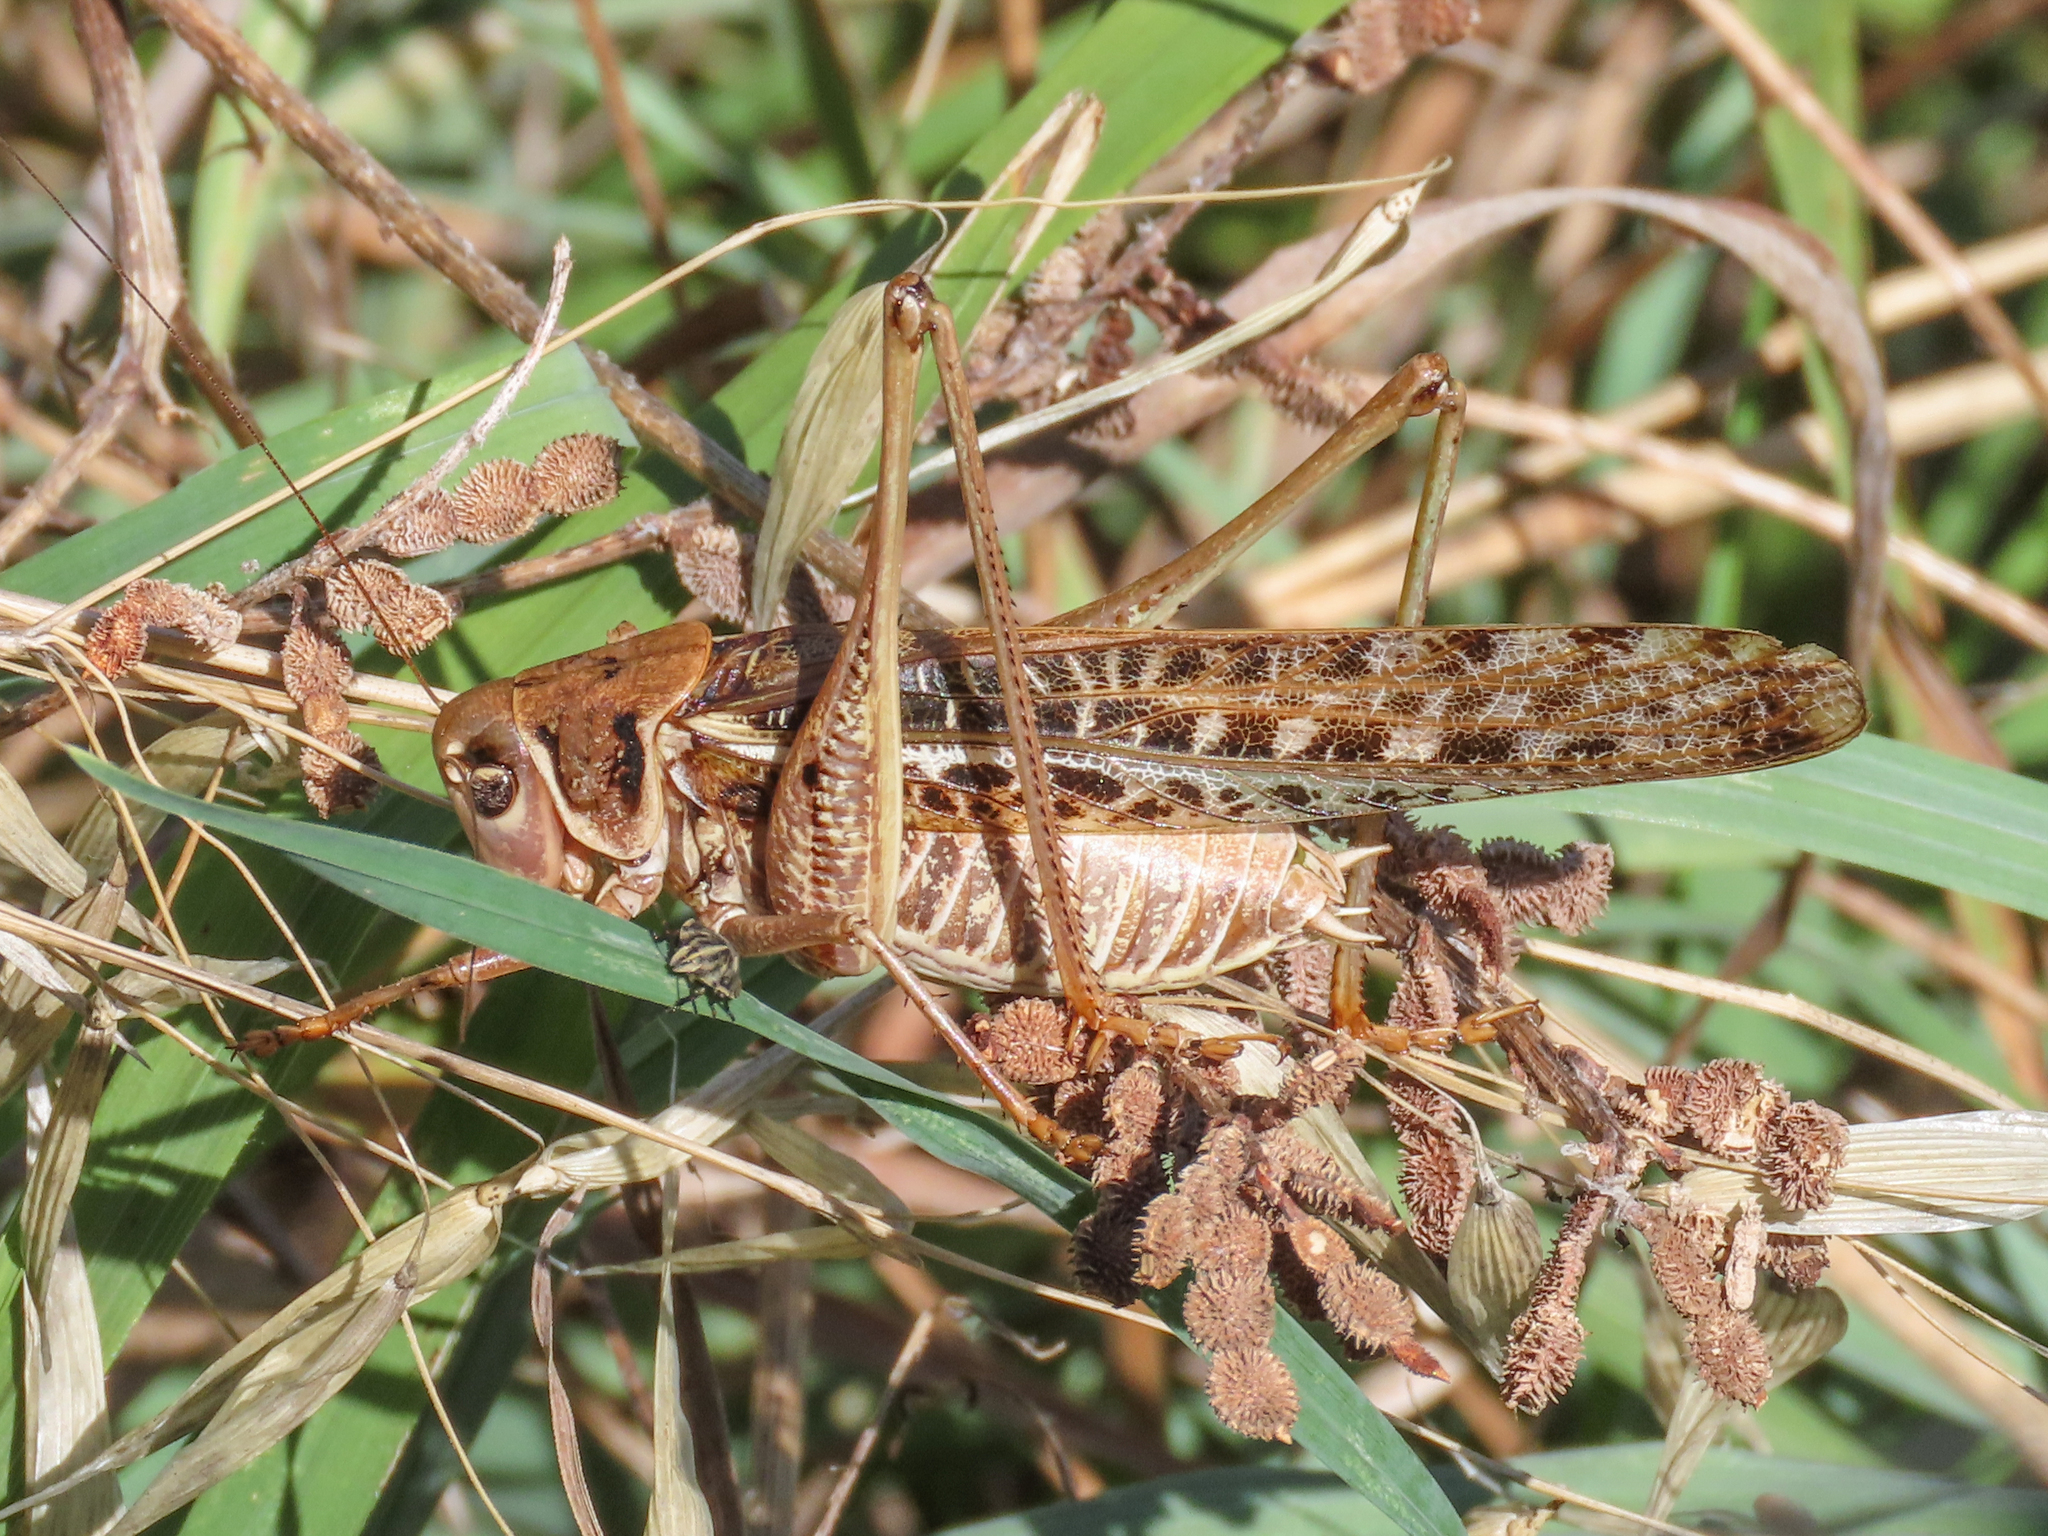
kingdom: Animalia
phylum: Arthropoda
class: Insecta
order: Orthoptera
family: Tettigoniidae
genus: Decticus
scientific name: Decticus albifrons
